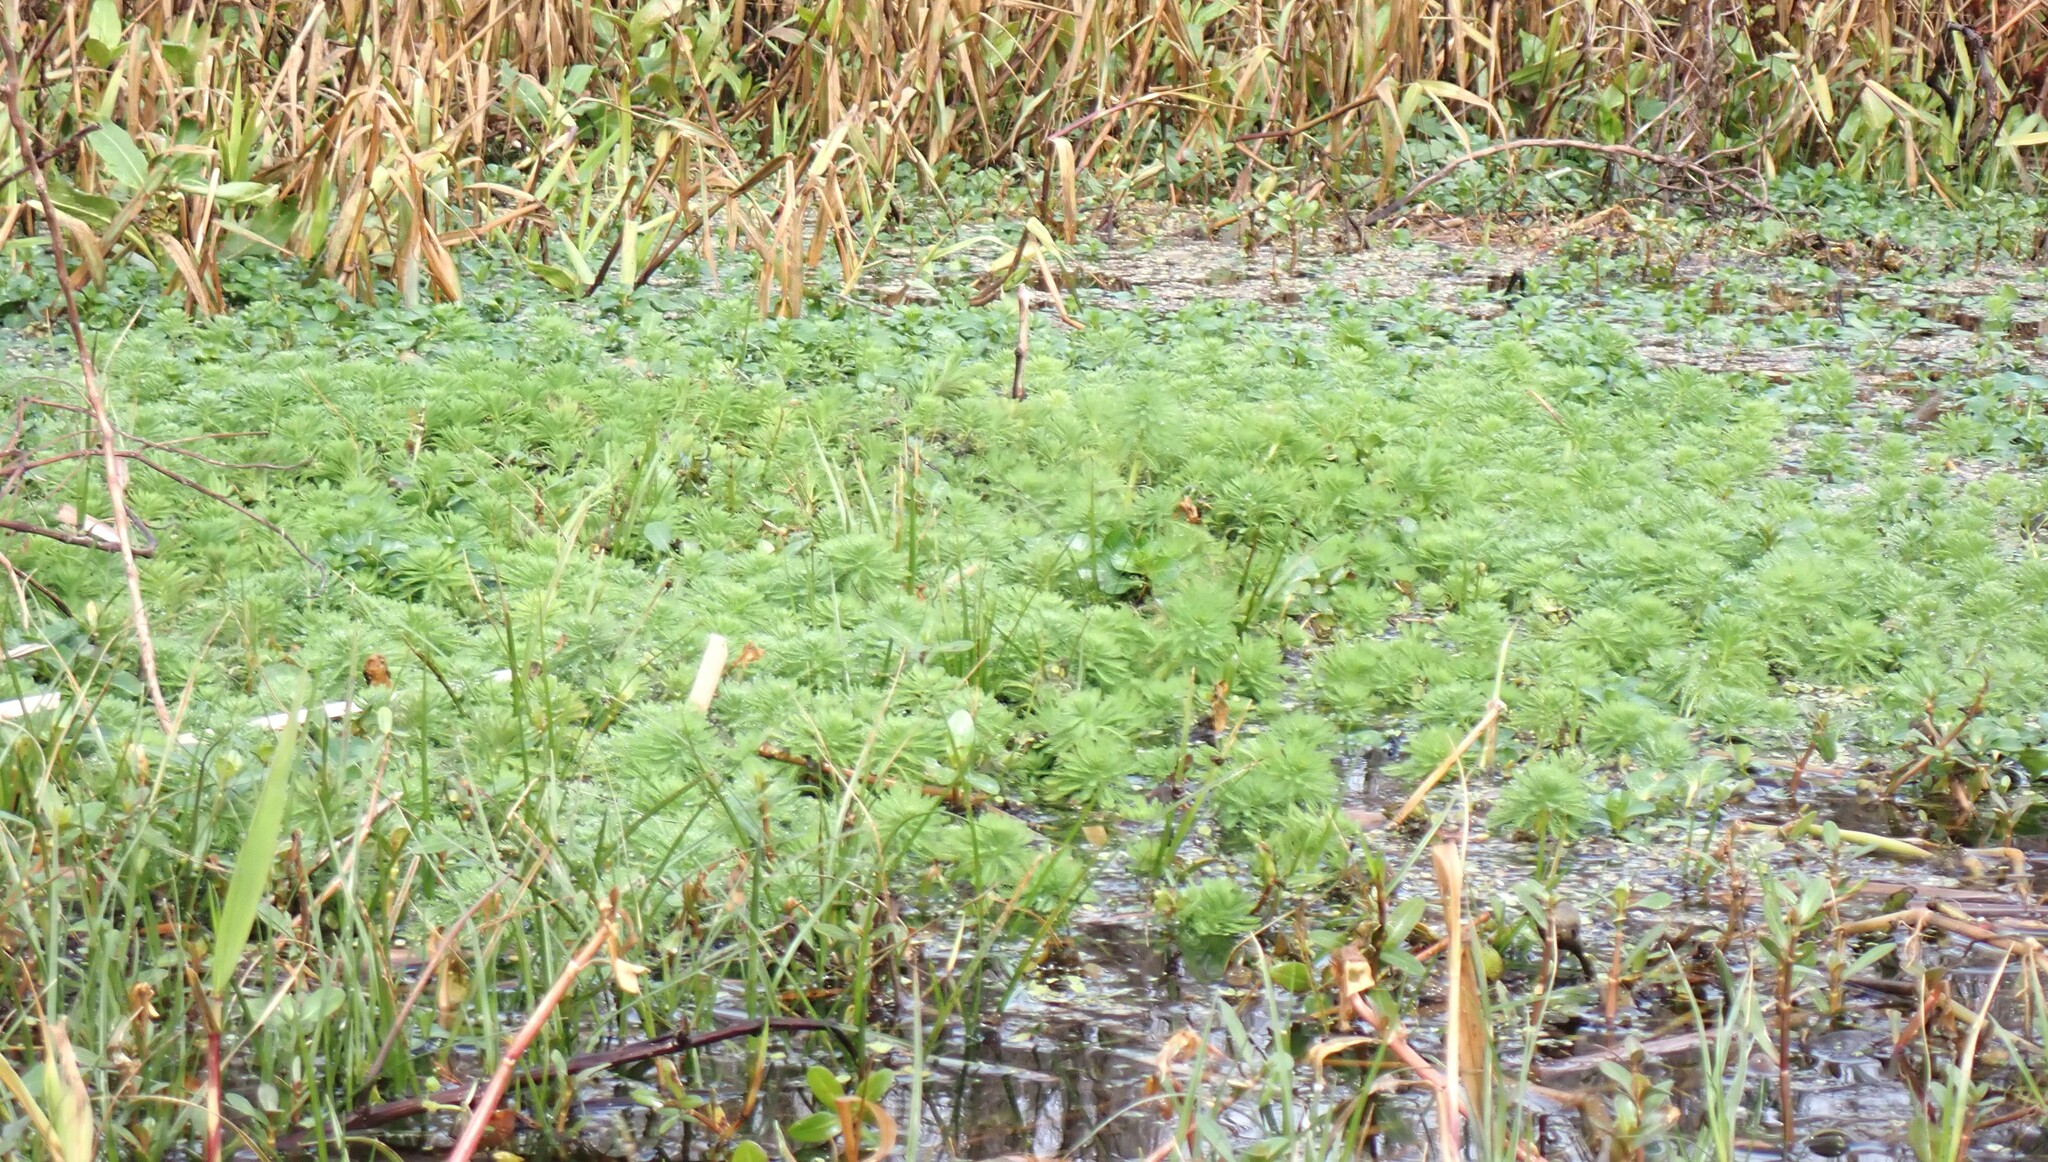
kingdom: Plantae
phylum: Tracheophyta
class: Magnoliopsida
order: Saxifragales
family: Haloragaceae
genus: Myriophyllum
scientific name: Myriophyllum aquaticum
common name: Parrot's feather
